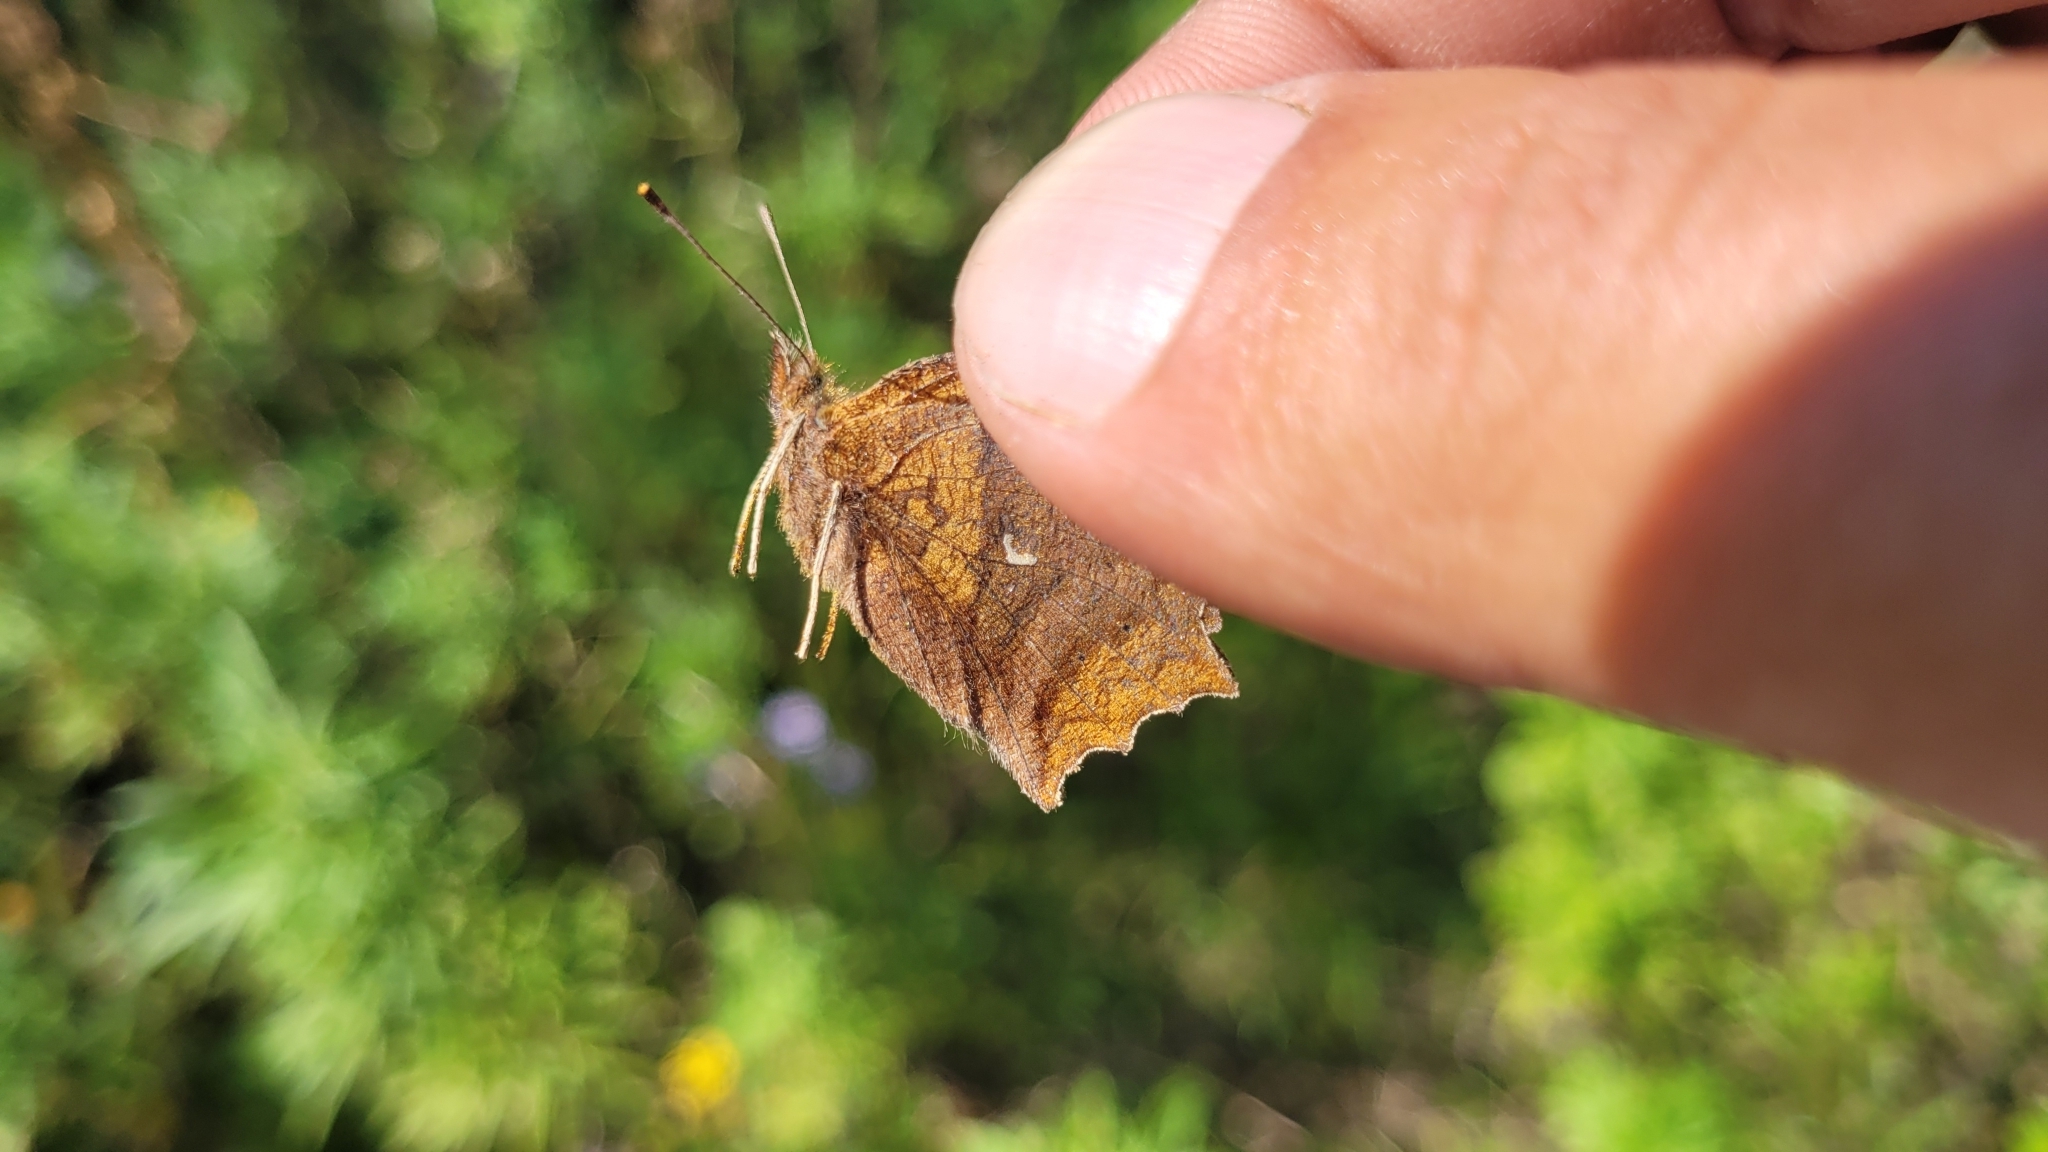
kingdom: Animalia
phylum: Arthropoda
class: Insecta
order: Lepidoptera
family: Nymphalidae
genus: Polygonia
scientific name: Polygonia c-aureum
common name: Asian comma
